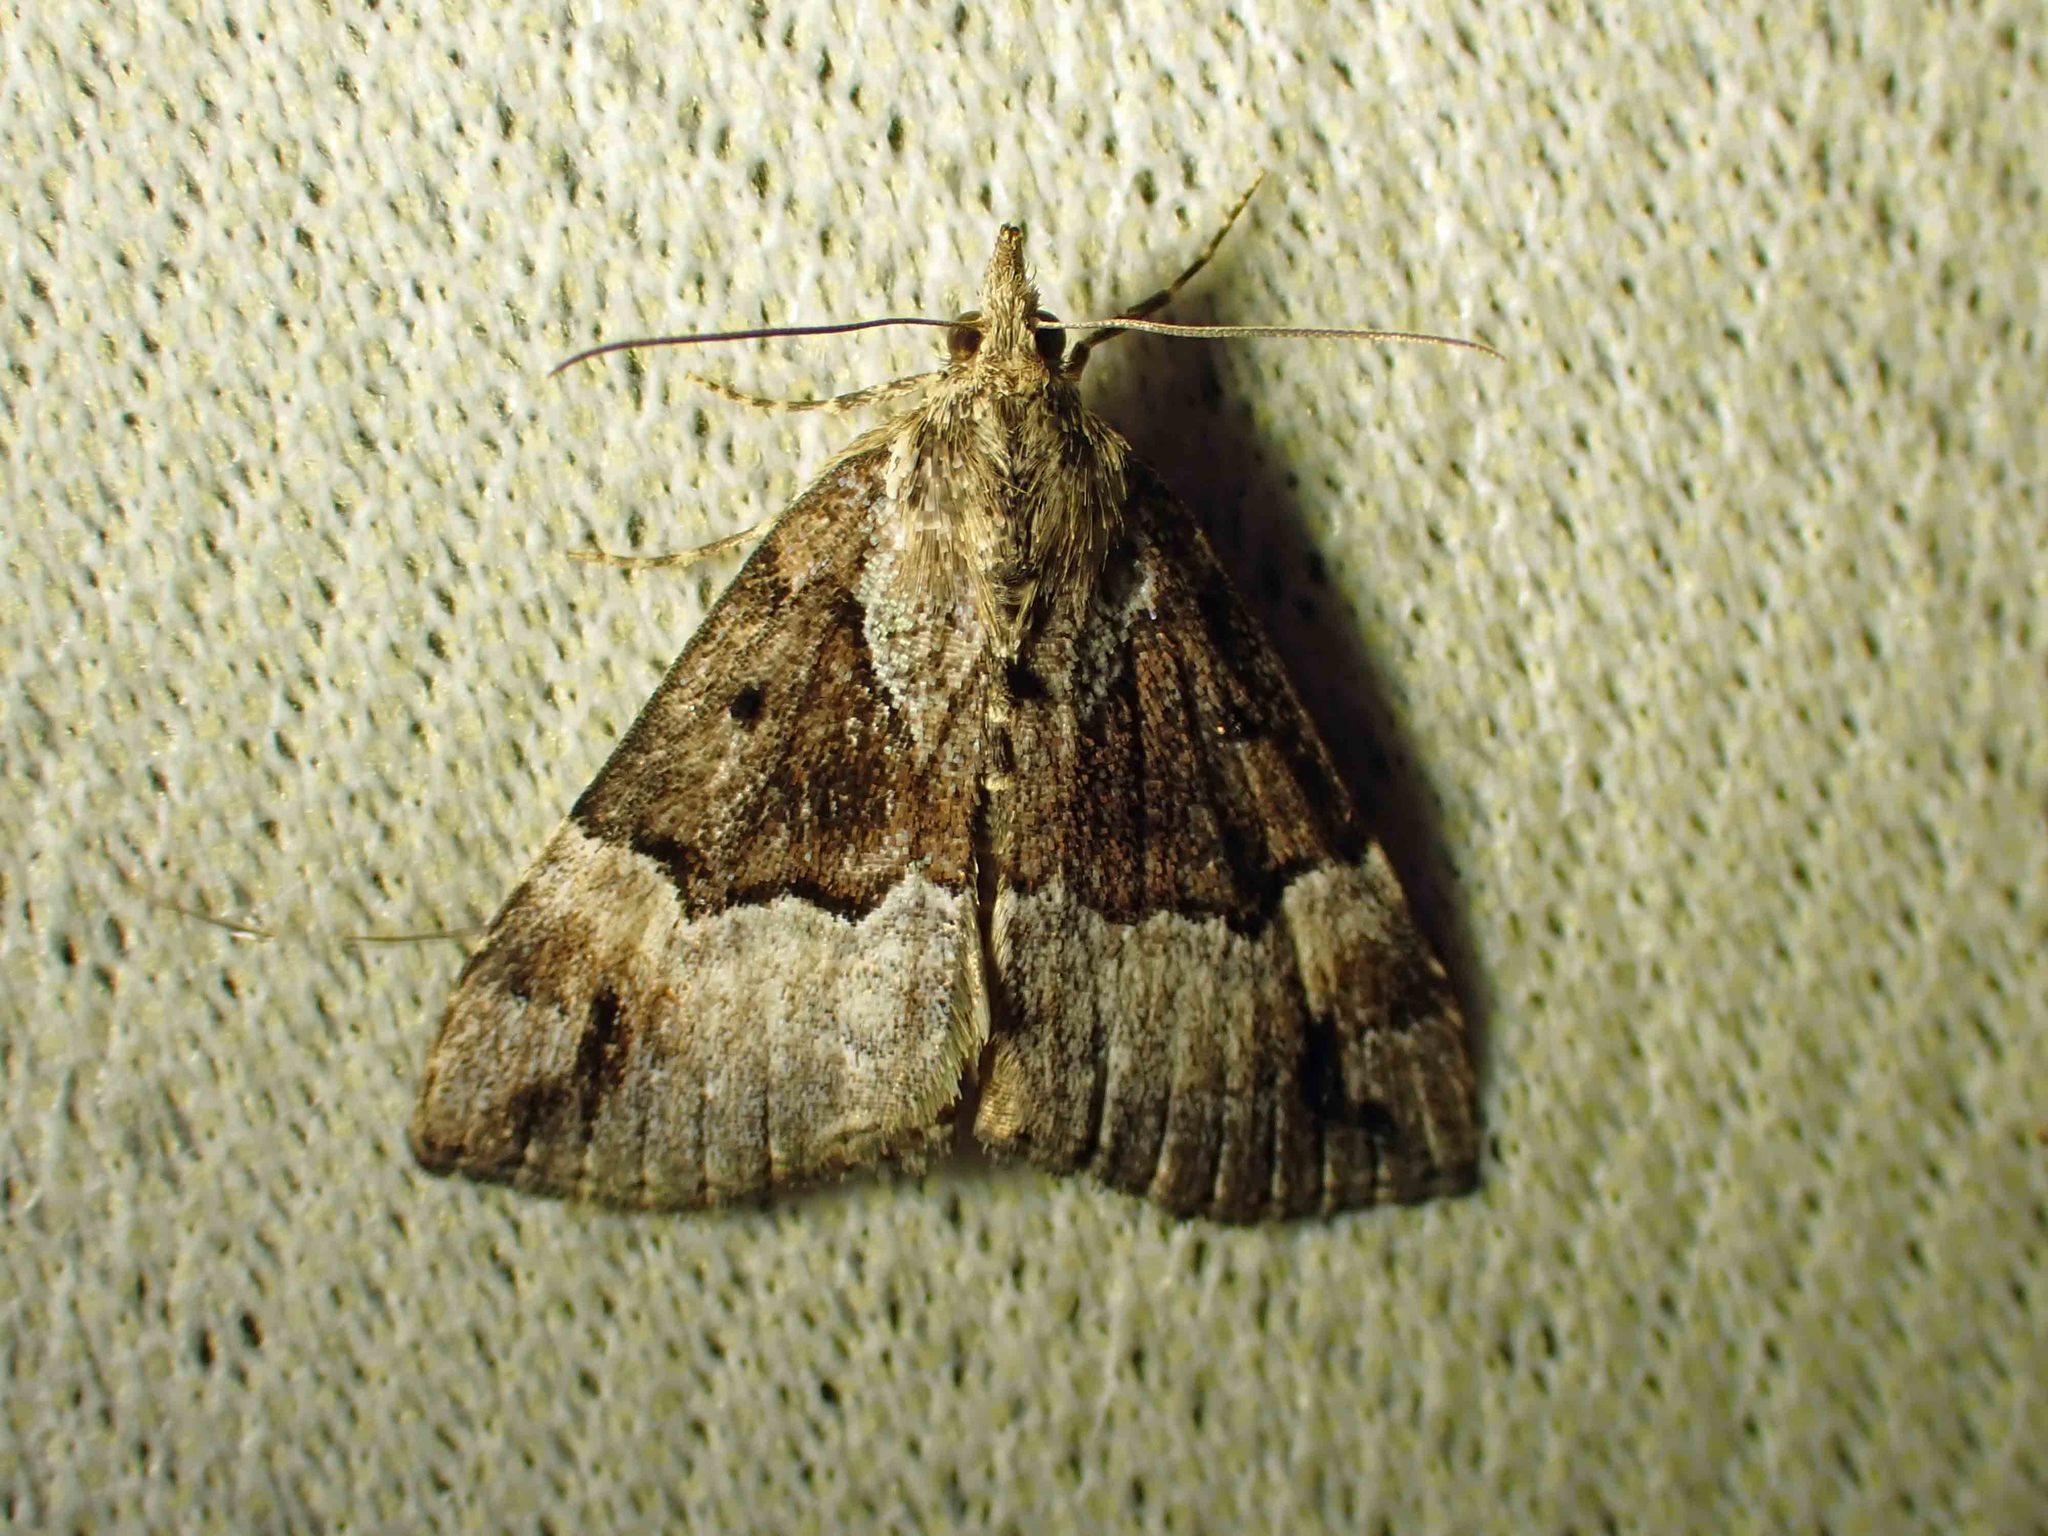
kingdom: Animalia
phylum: Arthropoda
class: Insecta
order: Lepidoptera
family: Erebidae
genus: Hypena
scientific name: Hypena palparia
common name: Mottled bomolocha moth
